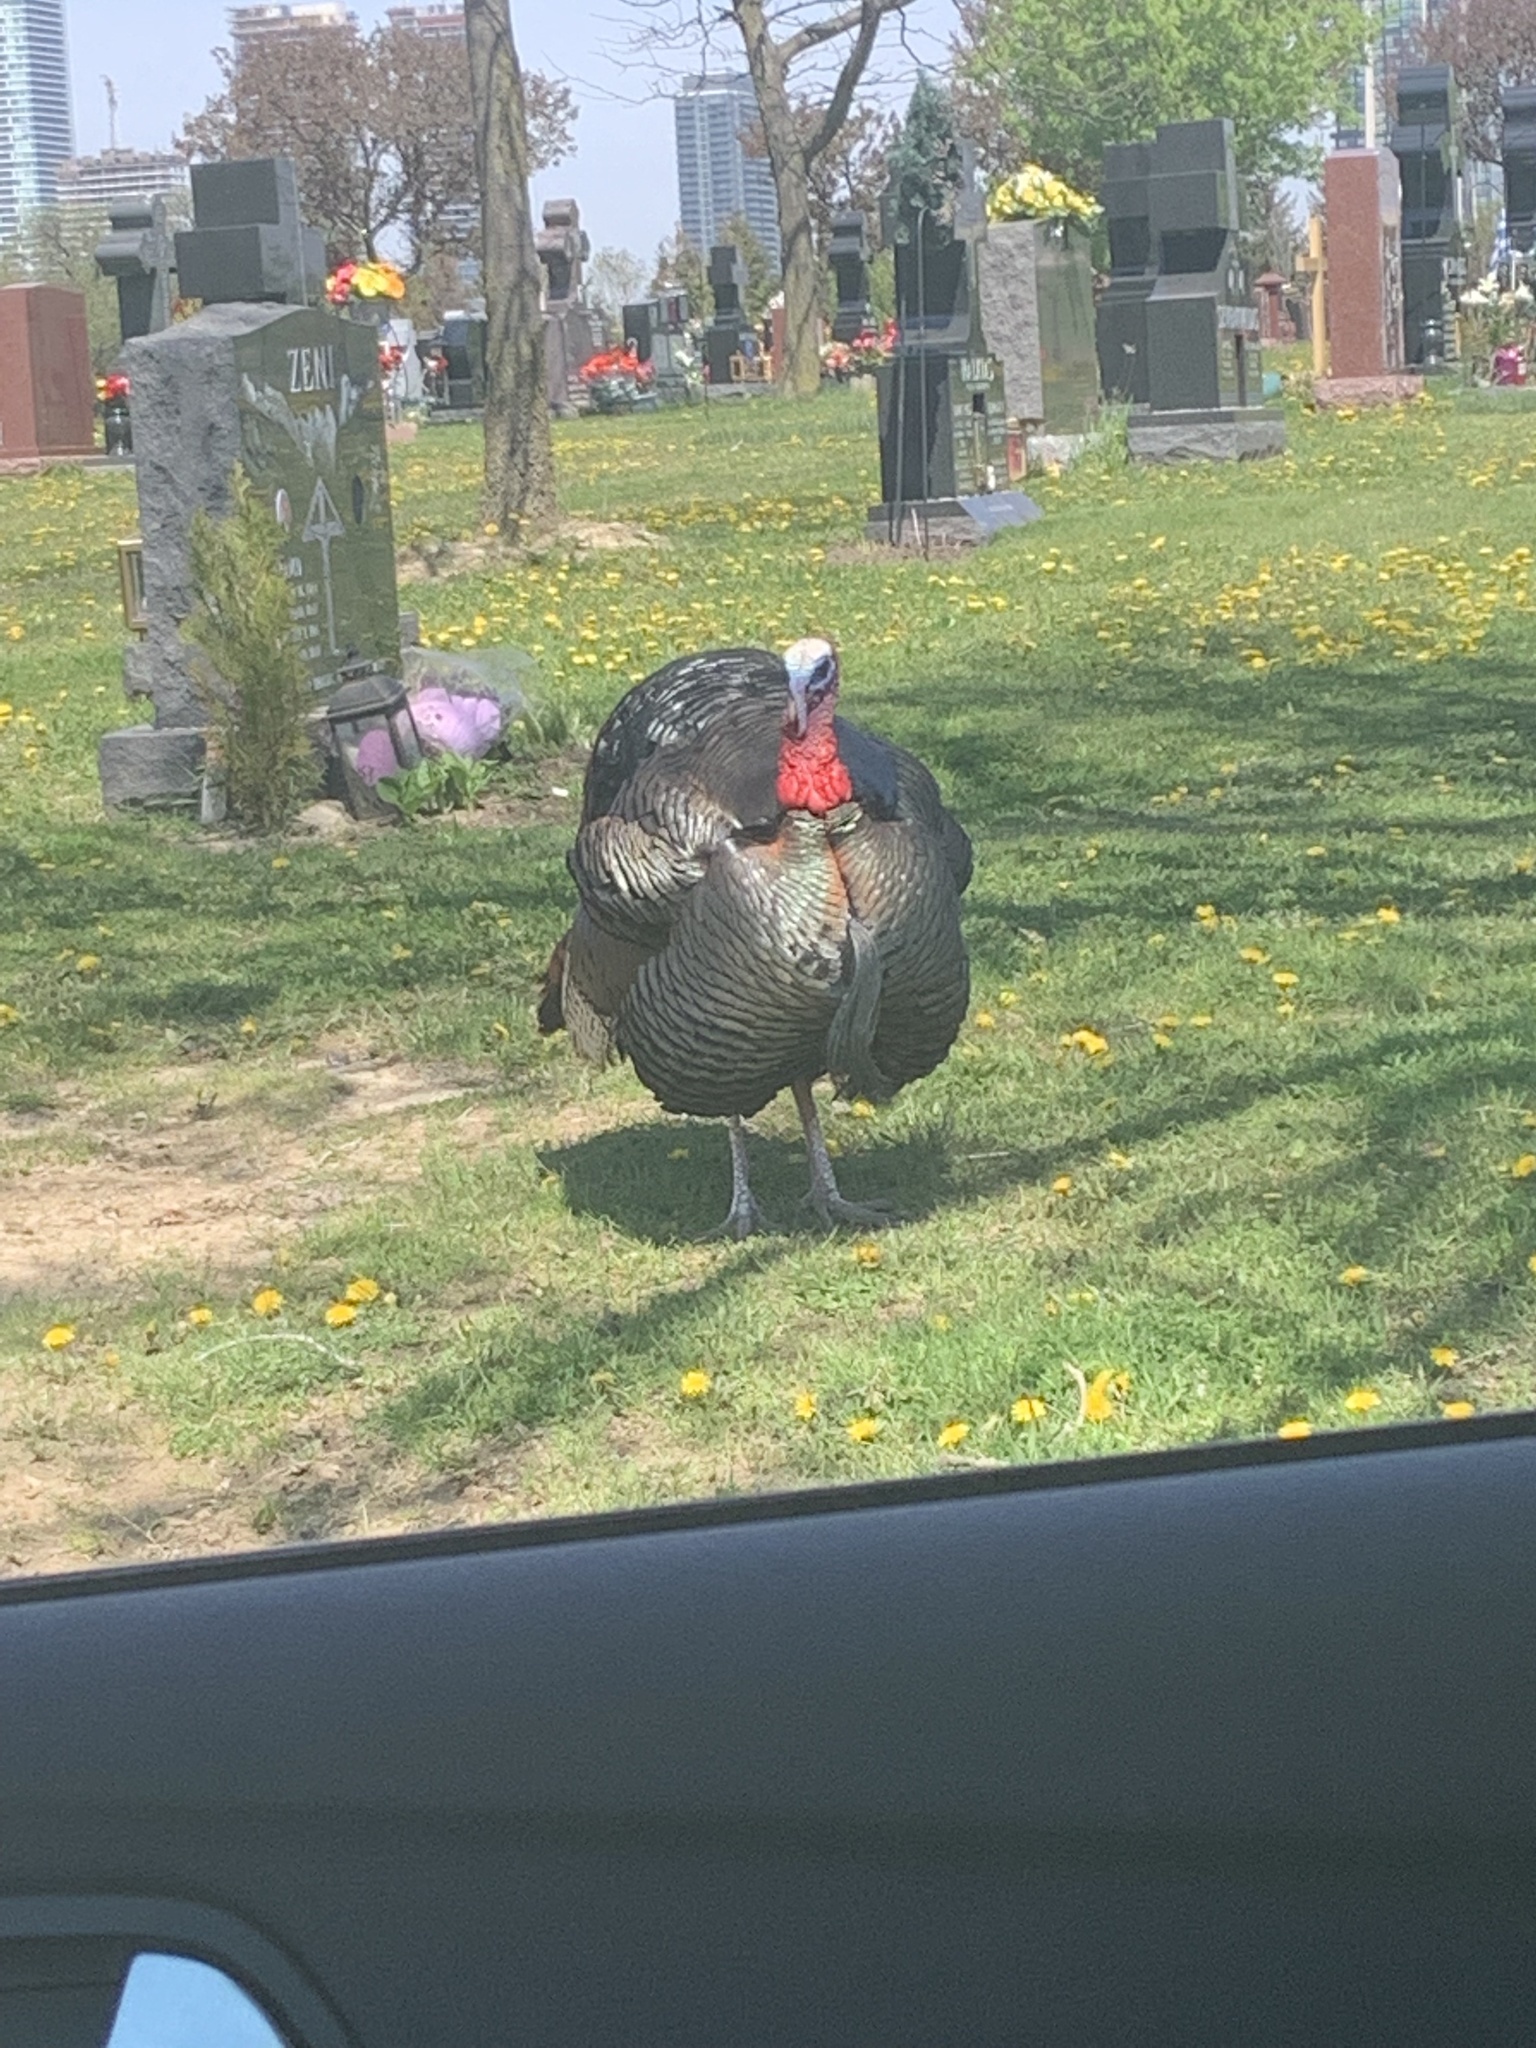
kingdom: Animalia
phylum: Chordata
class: Aves
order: Galliformes
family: Phasianidae
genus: Meleagris
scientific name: Meleagris gallopavo
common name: Wild turkey
